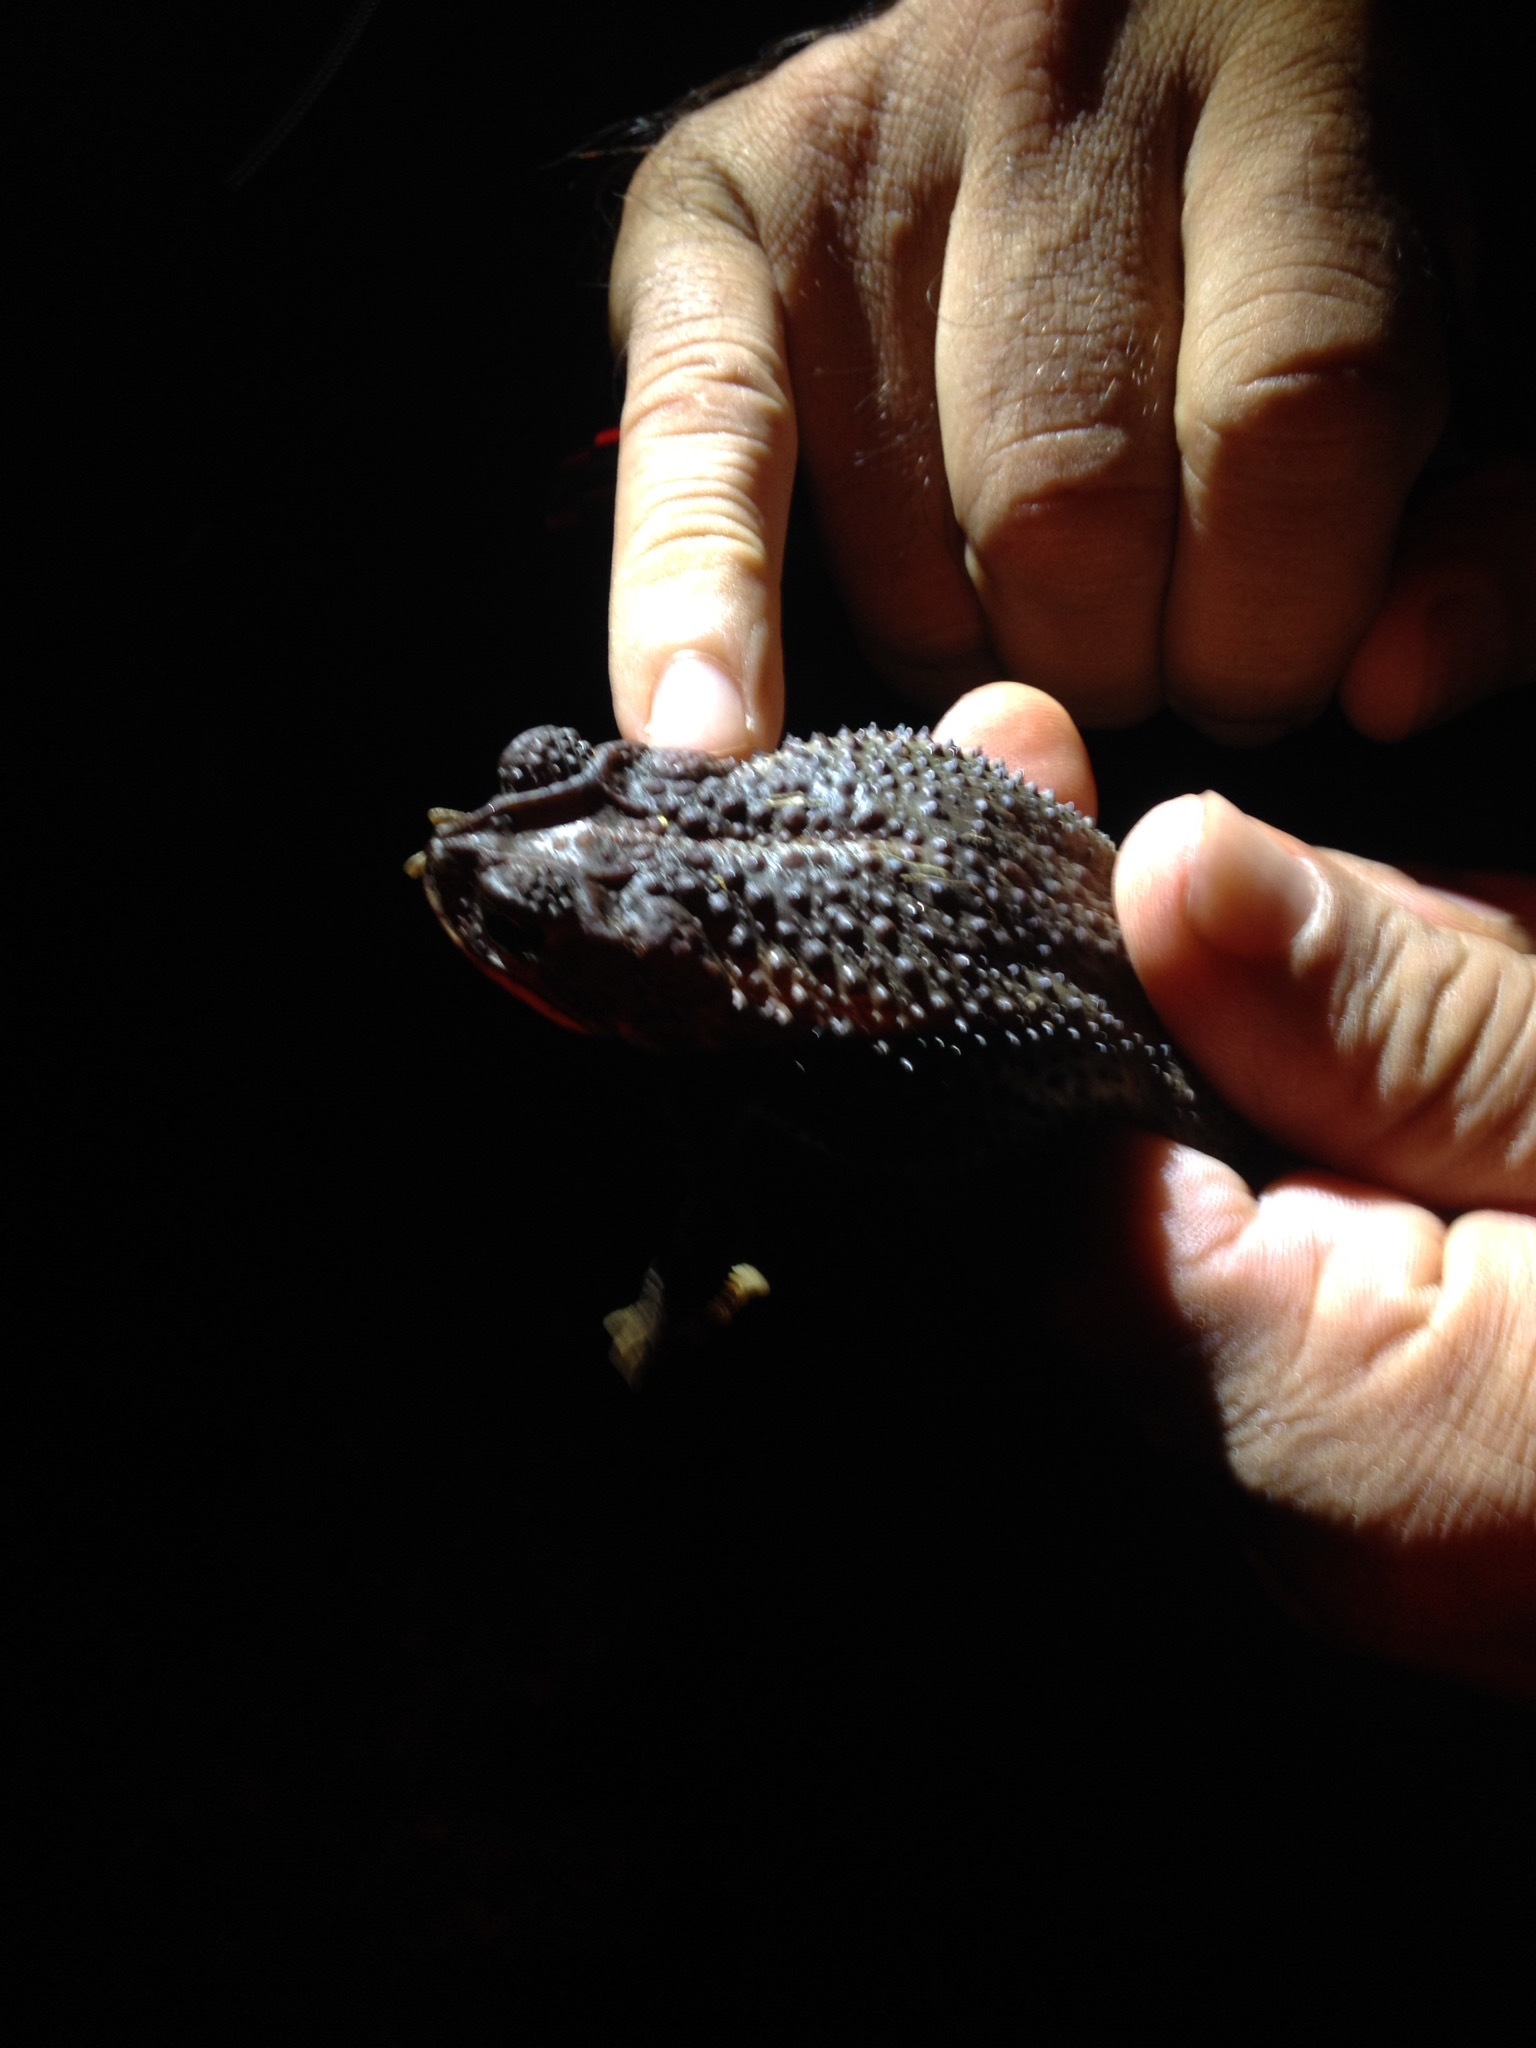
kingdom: Animalia
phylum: Chordata
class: Amphibia
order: Anura
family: Bufonidae
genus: Incilius
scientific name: Incilius coccifer
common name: Southern round-gland toad
